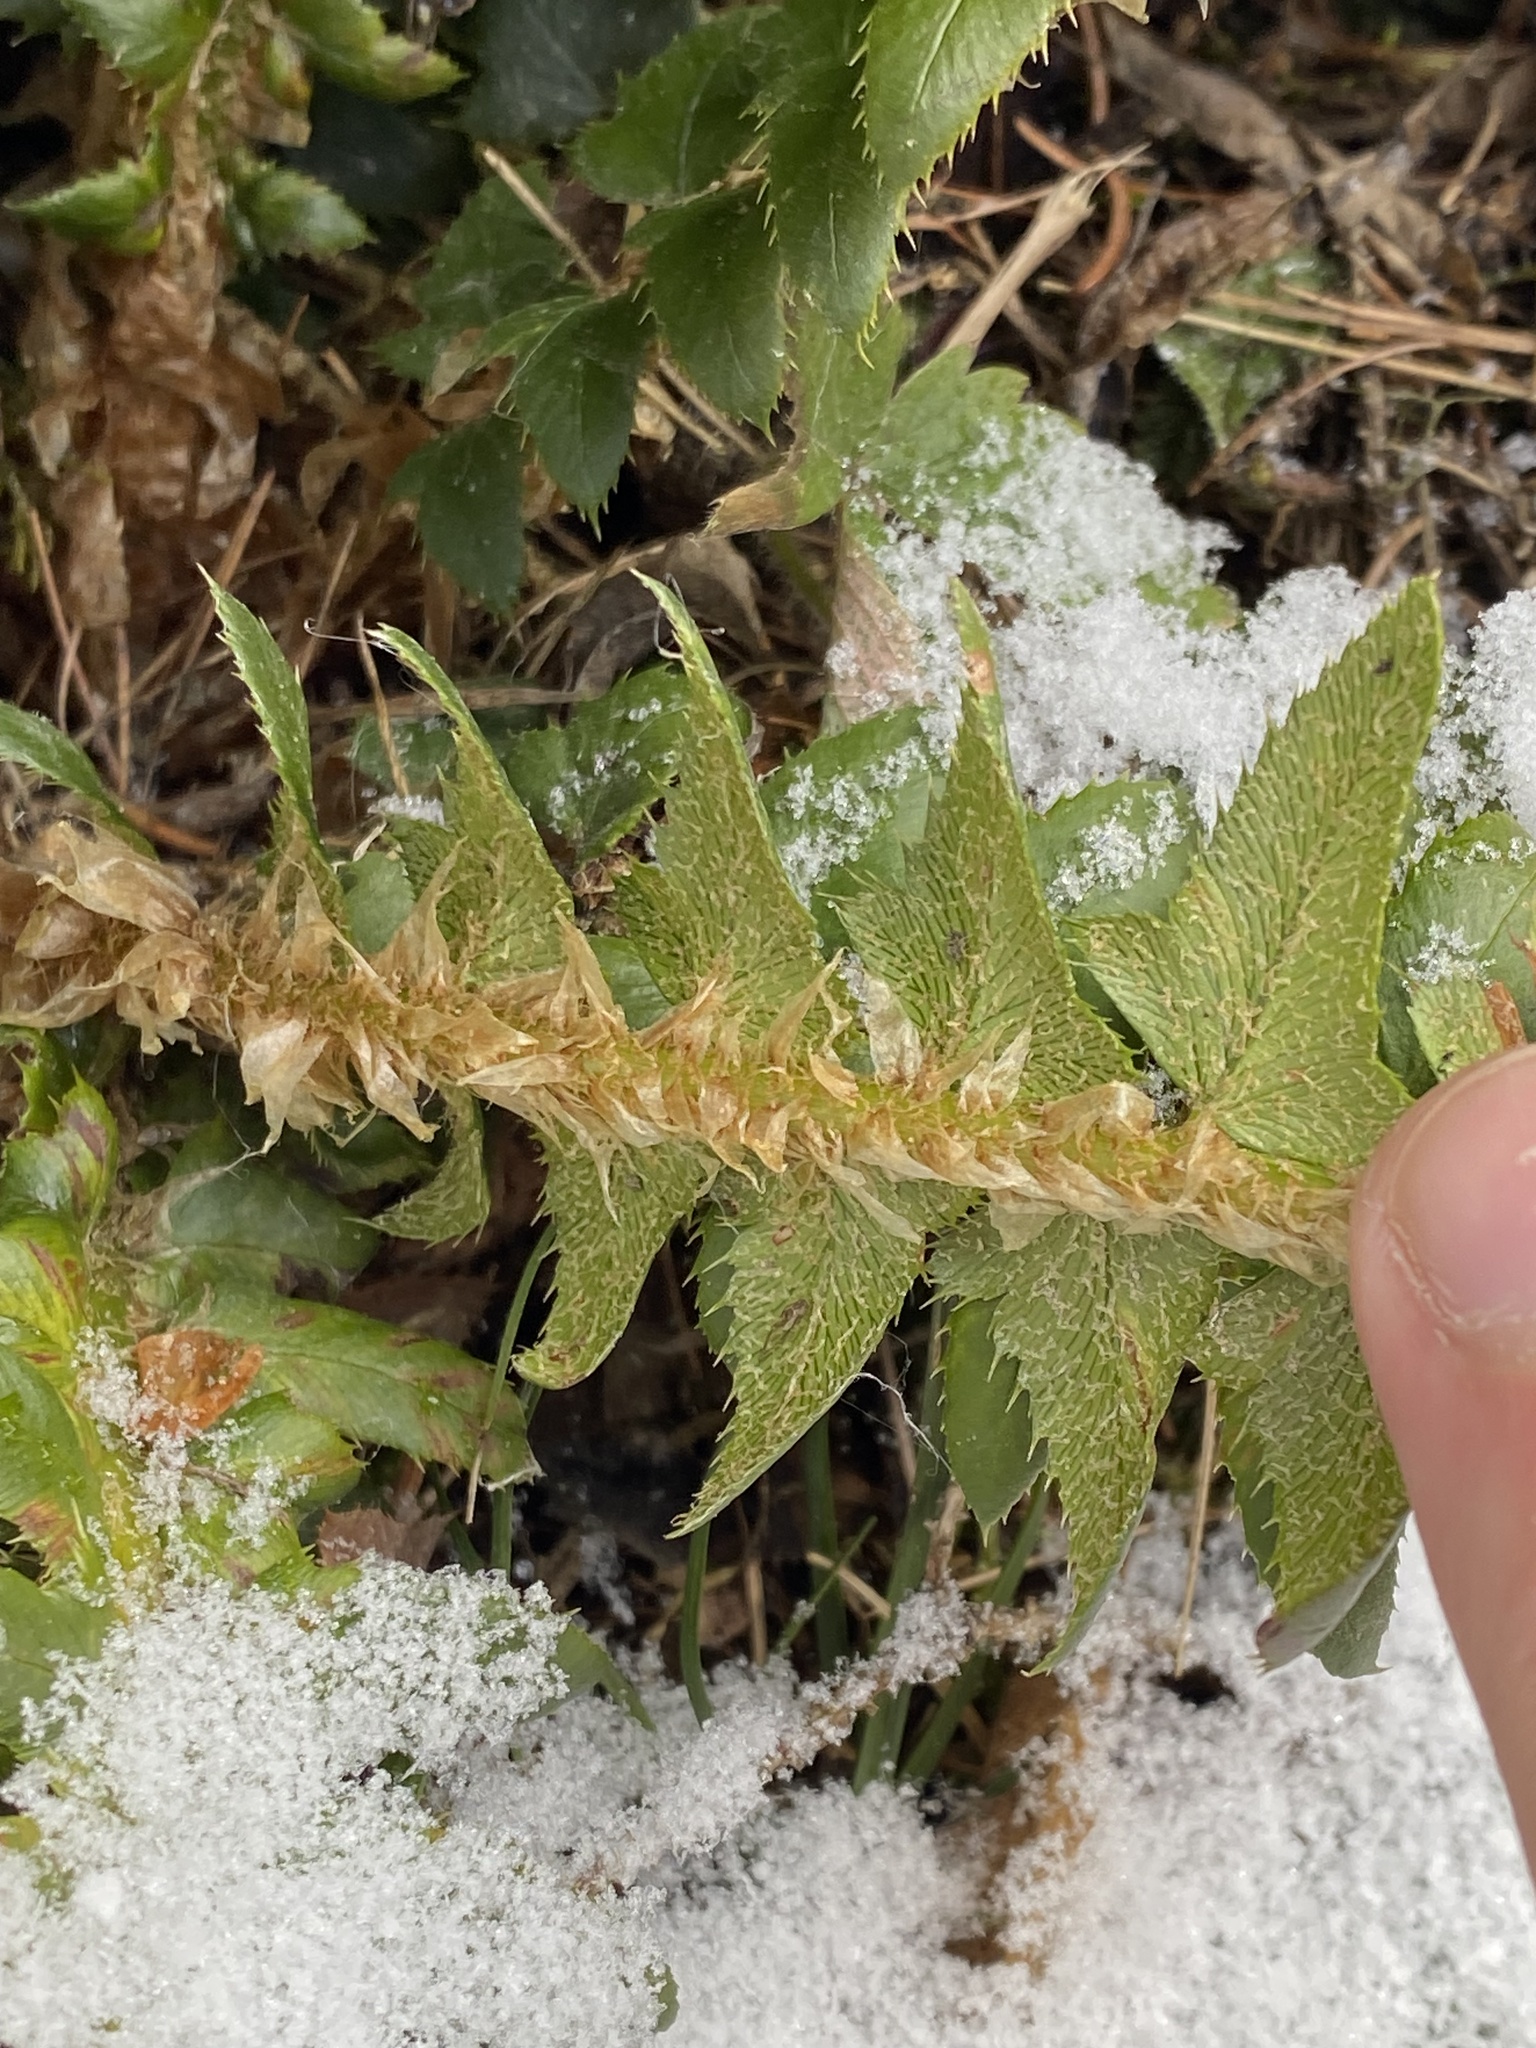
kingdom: Plantae
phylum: Tracheophyta
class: Polypodiopsida
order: Polypodiales
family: Dryopteridaceae
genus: Polystichum
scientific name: Polystichum lonchitis
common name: Holly fern
